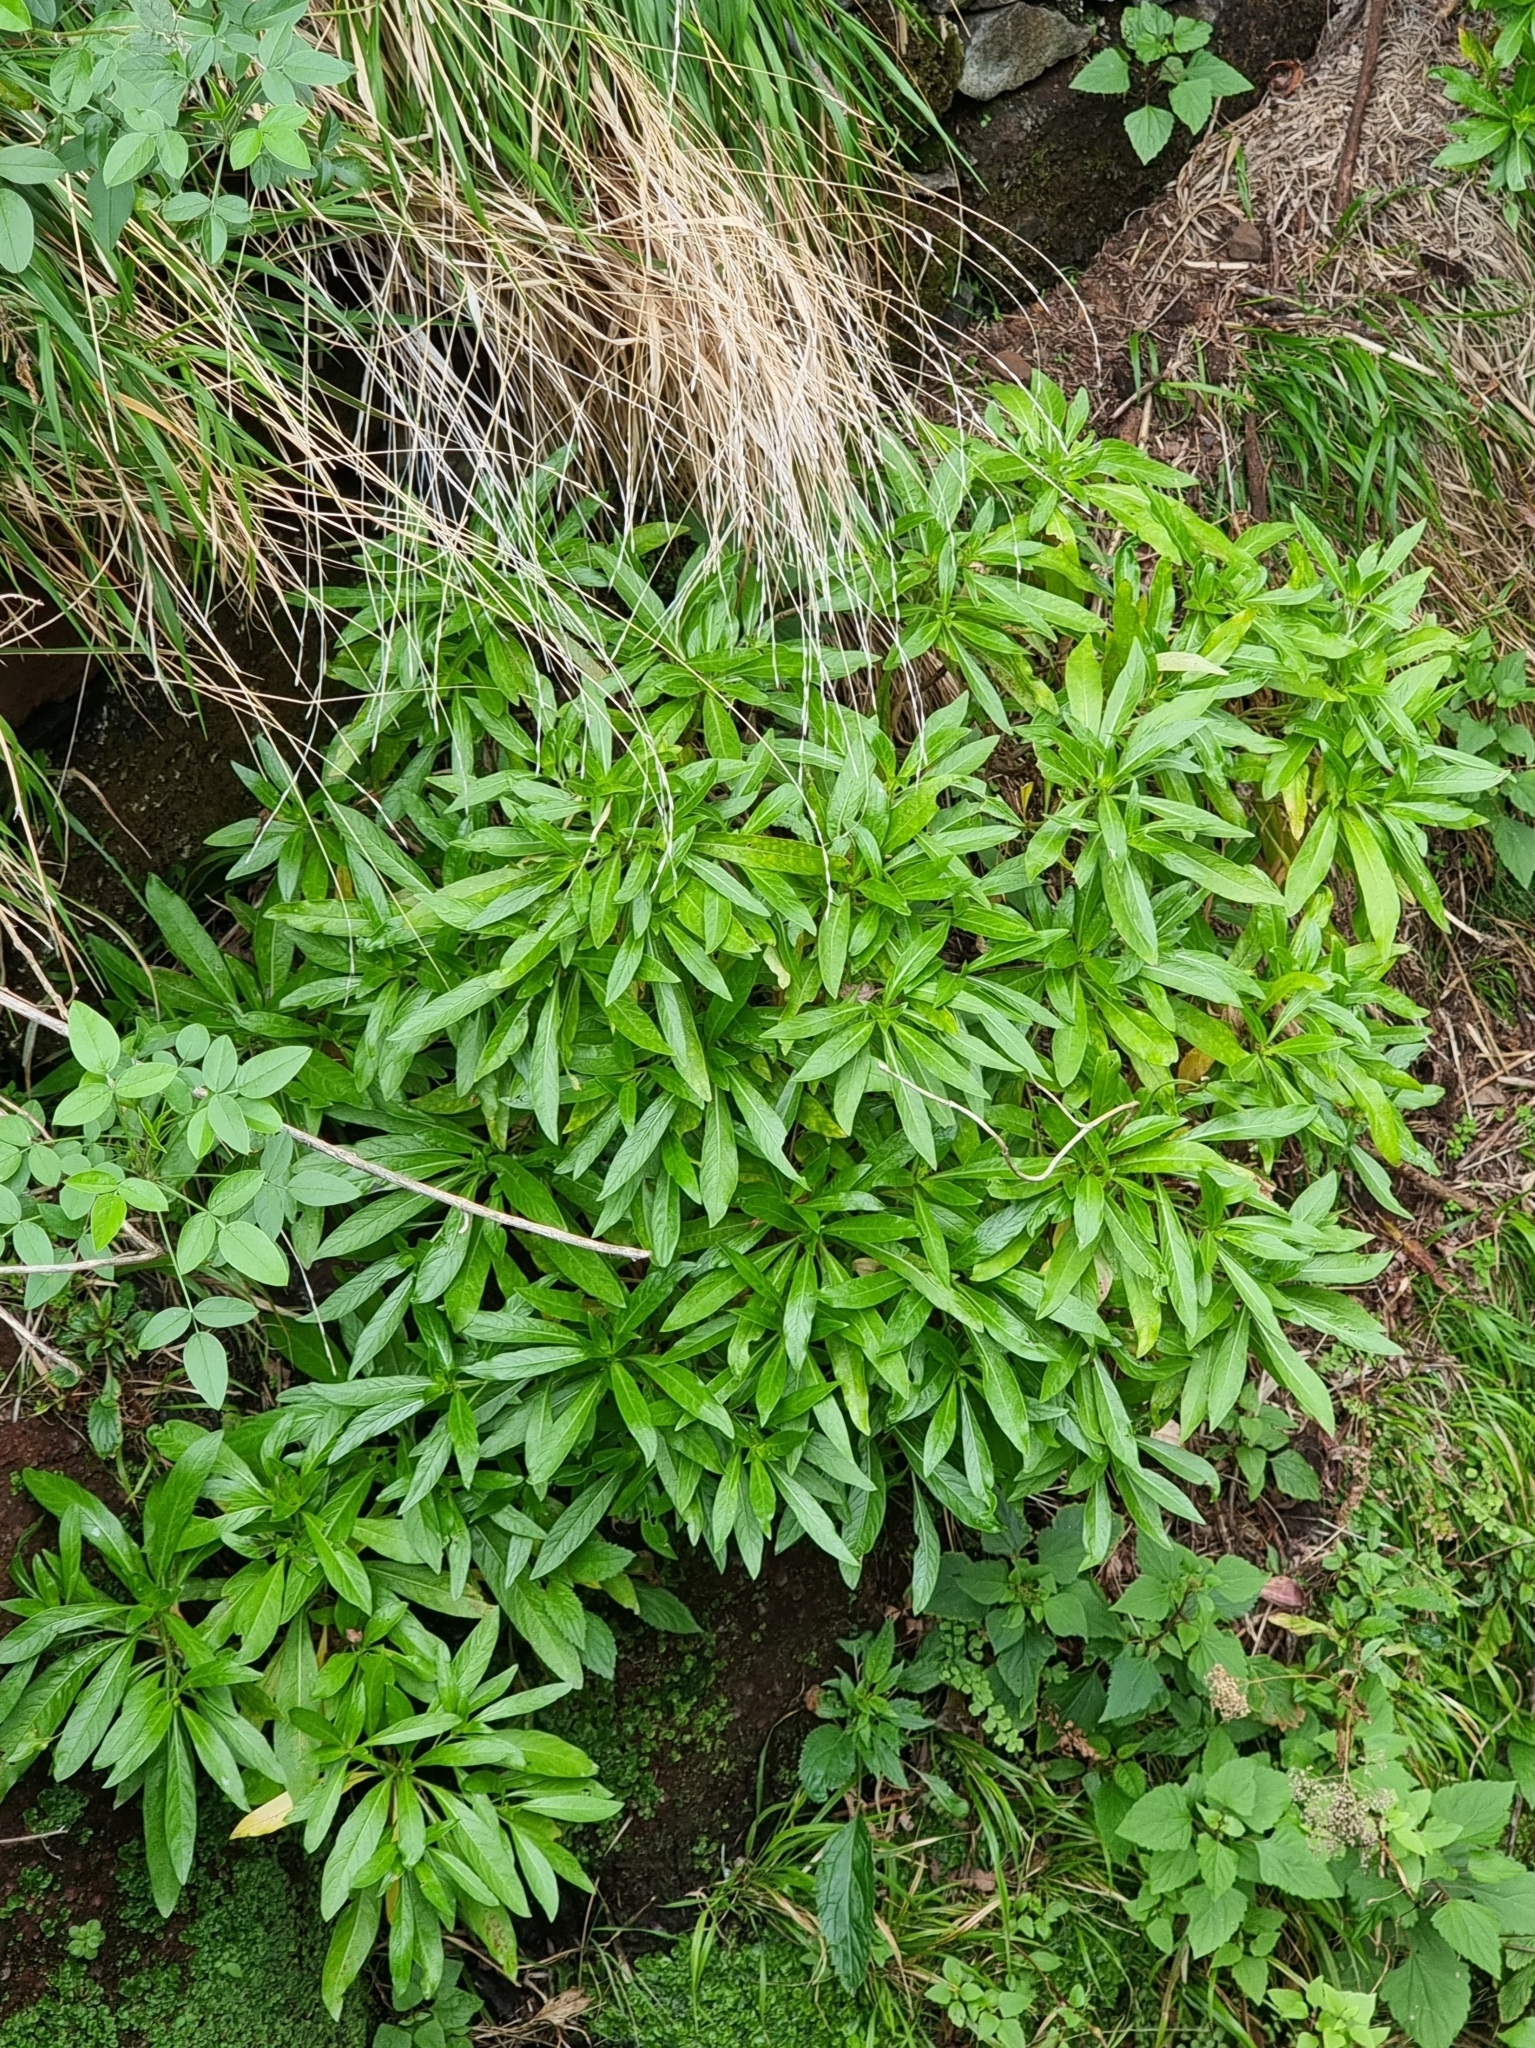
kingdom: Plantae
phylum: Tracheophyta
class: Magnoliopsida
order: Gentianales
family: Rubiaceae
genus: Phyllis
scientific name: Phyllis nobla
